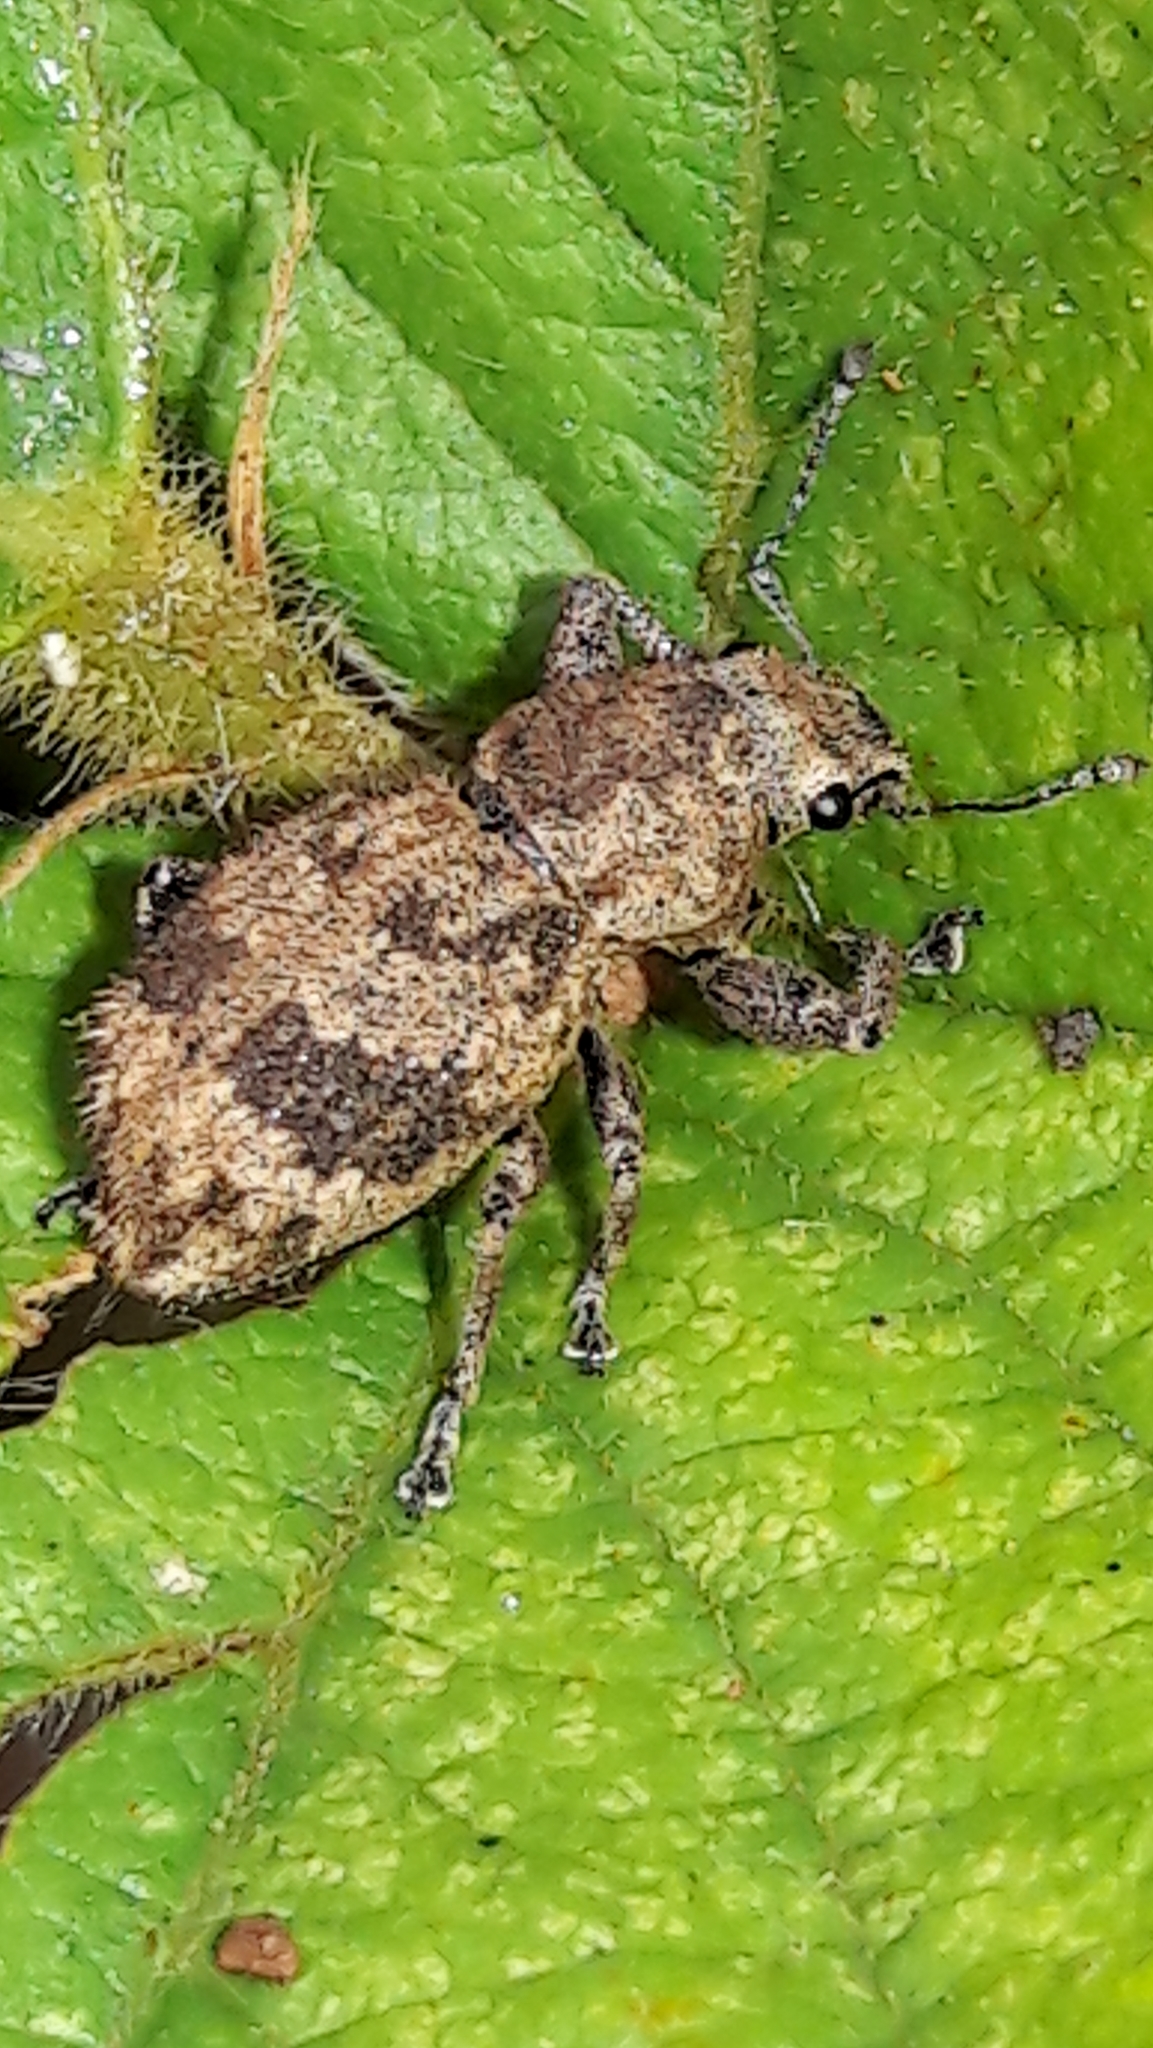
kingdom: Animalia
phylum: Arthropoda
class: Insecta
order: Coleoptera
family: Curculionidae
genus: Pantomorus
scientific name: Pantomorus
